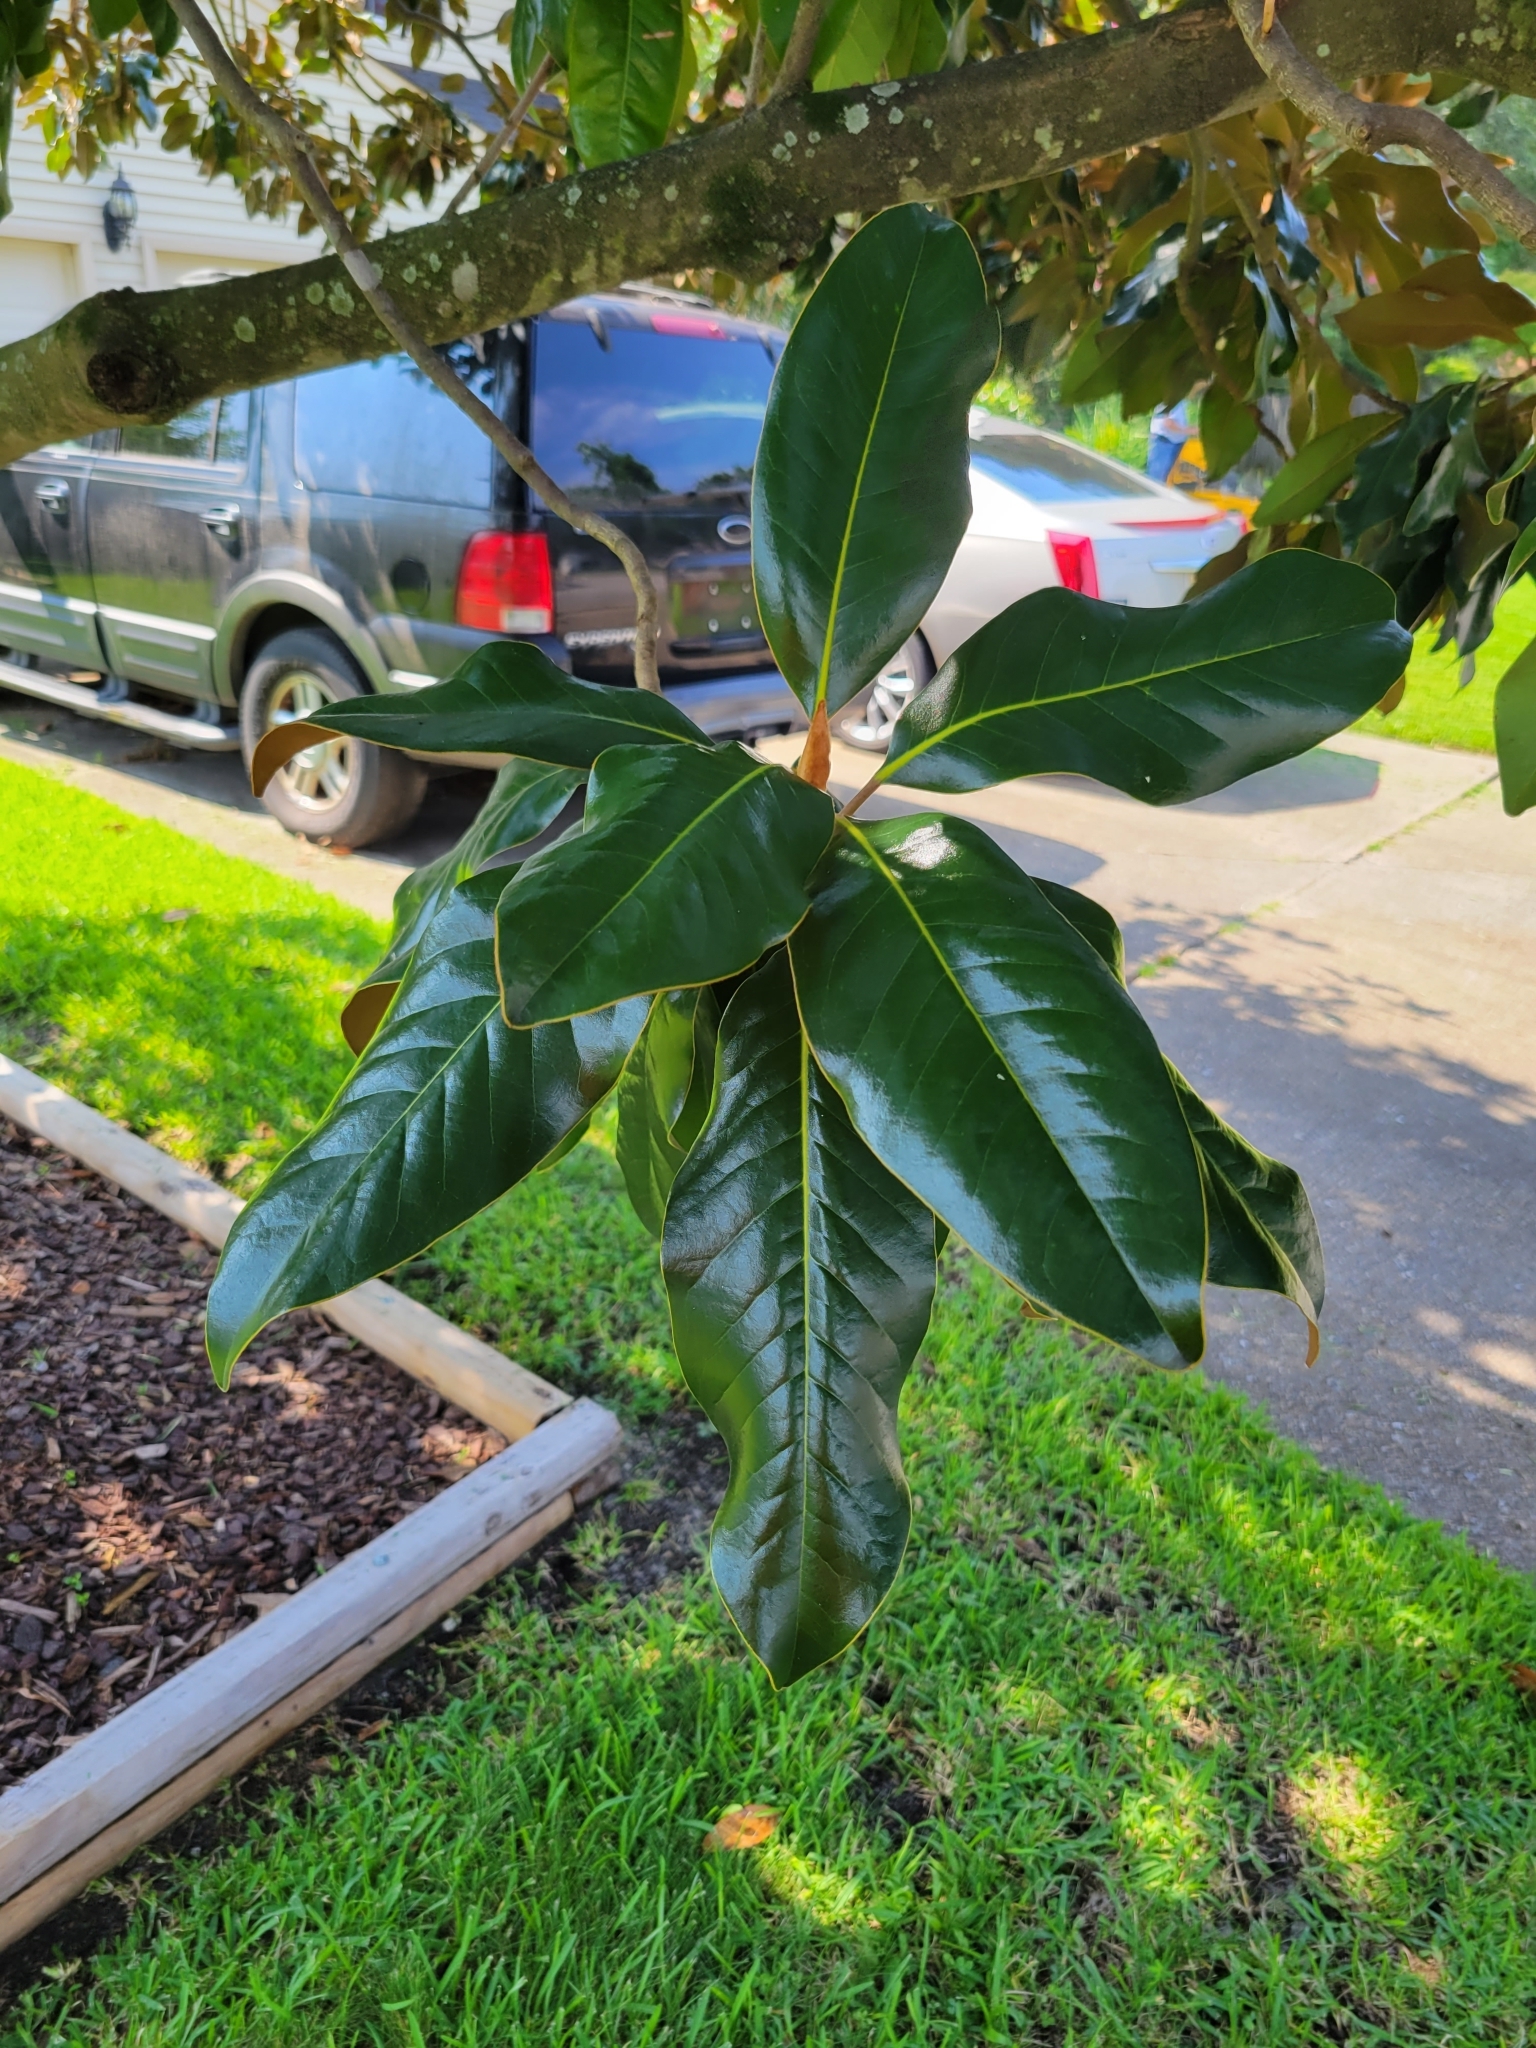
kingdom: Plantae
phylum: Tracheophyta
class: Magnoliopsida
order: Magnoliales
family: Magnoliaceae
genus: Magnolia
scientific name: Magnolia grandiflora
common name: Southern magnolia
